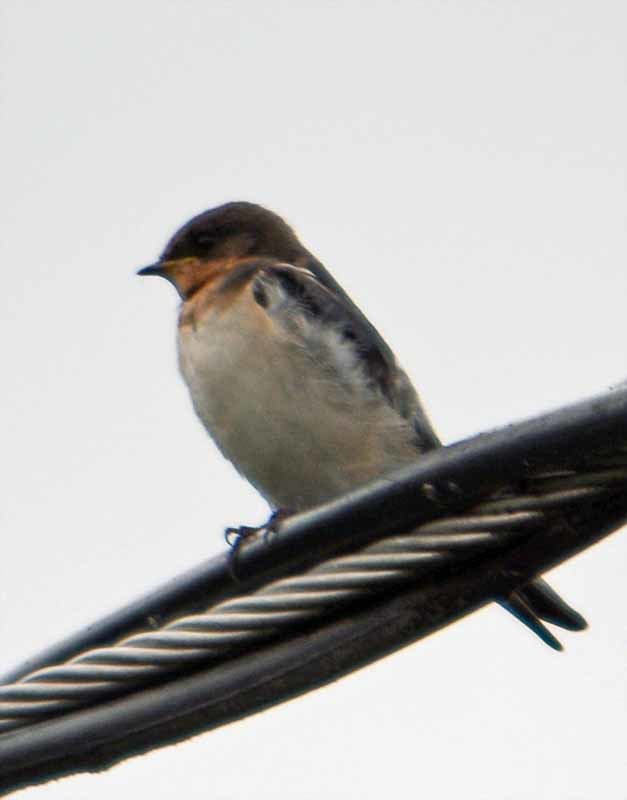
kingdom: Animalia
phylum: Chordata
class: Aves
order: Passeriformes
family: Hirundinidae
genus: Hirundo
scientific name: Hirundo rustica
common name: Barn swallow
